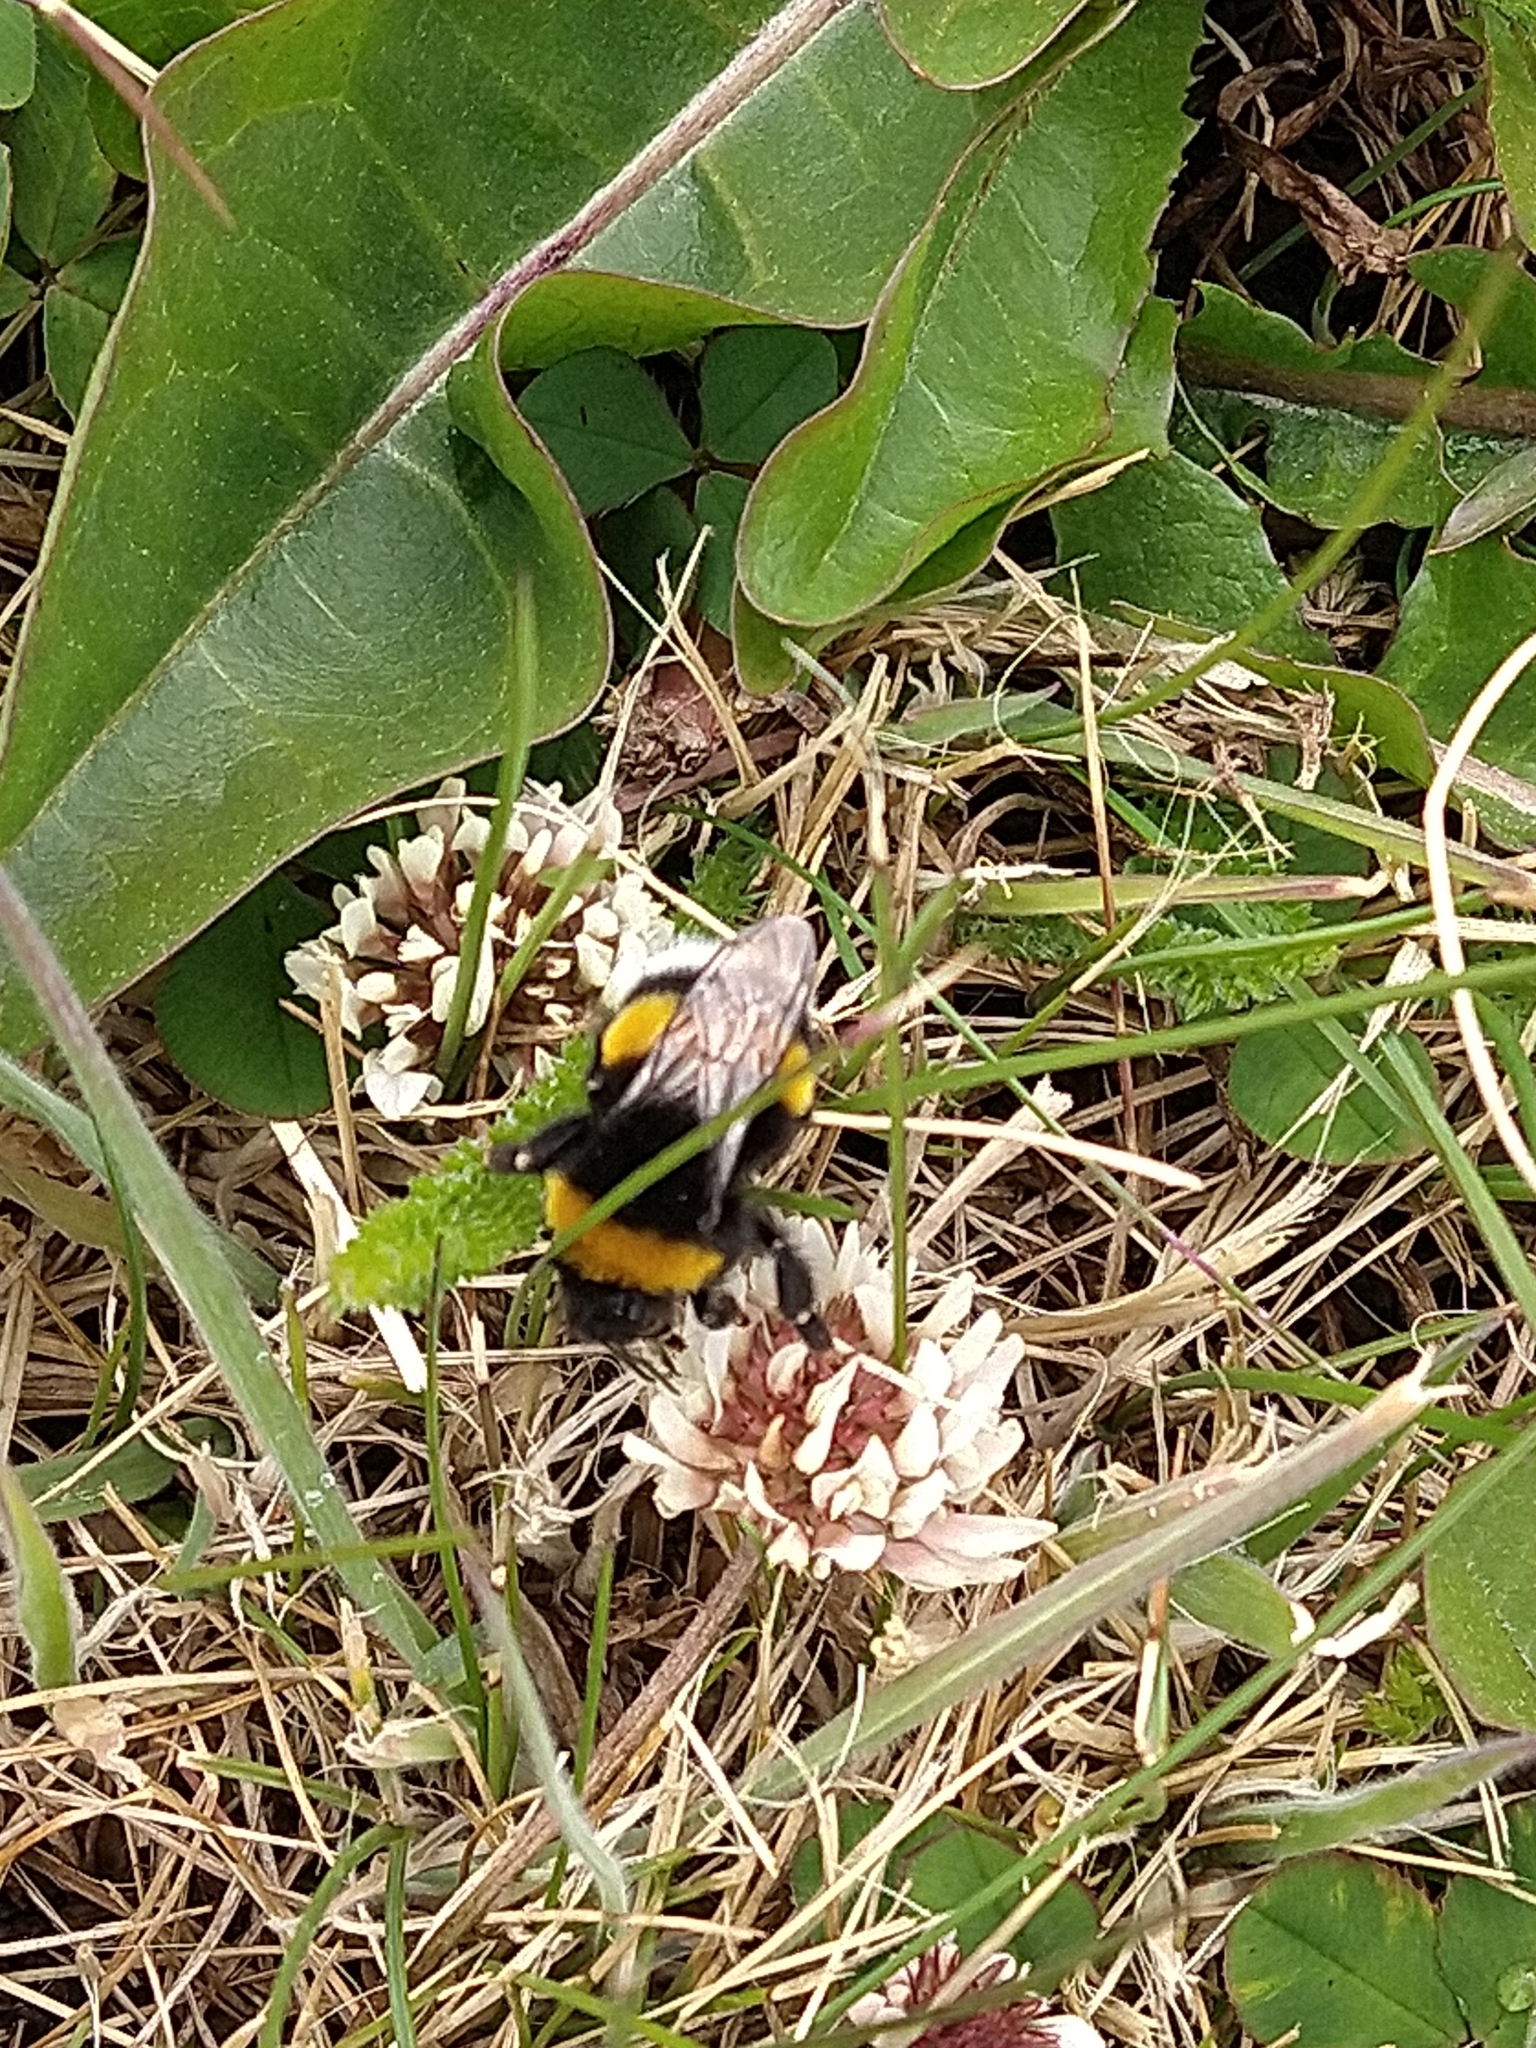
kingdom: Animalia
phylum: Arthropoda
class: Insecta
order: Hymenoptera
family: Apidae
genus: Bombus
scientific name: Bombus terrestris
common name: Buff-tailed bumblebee
